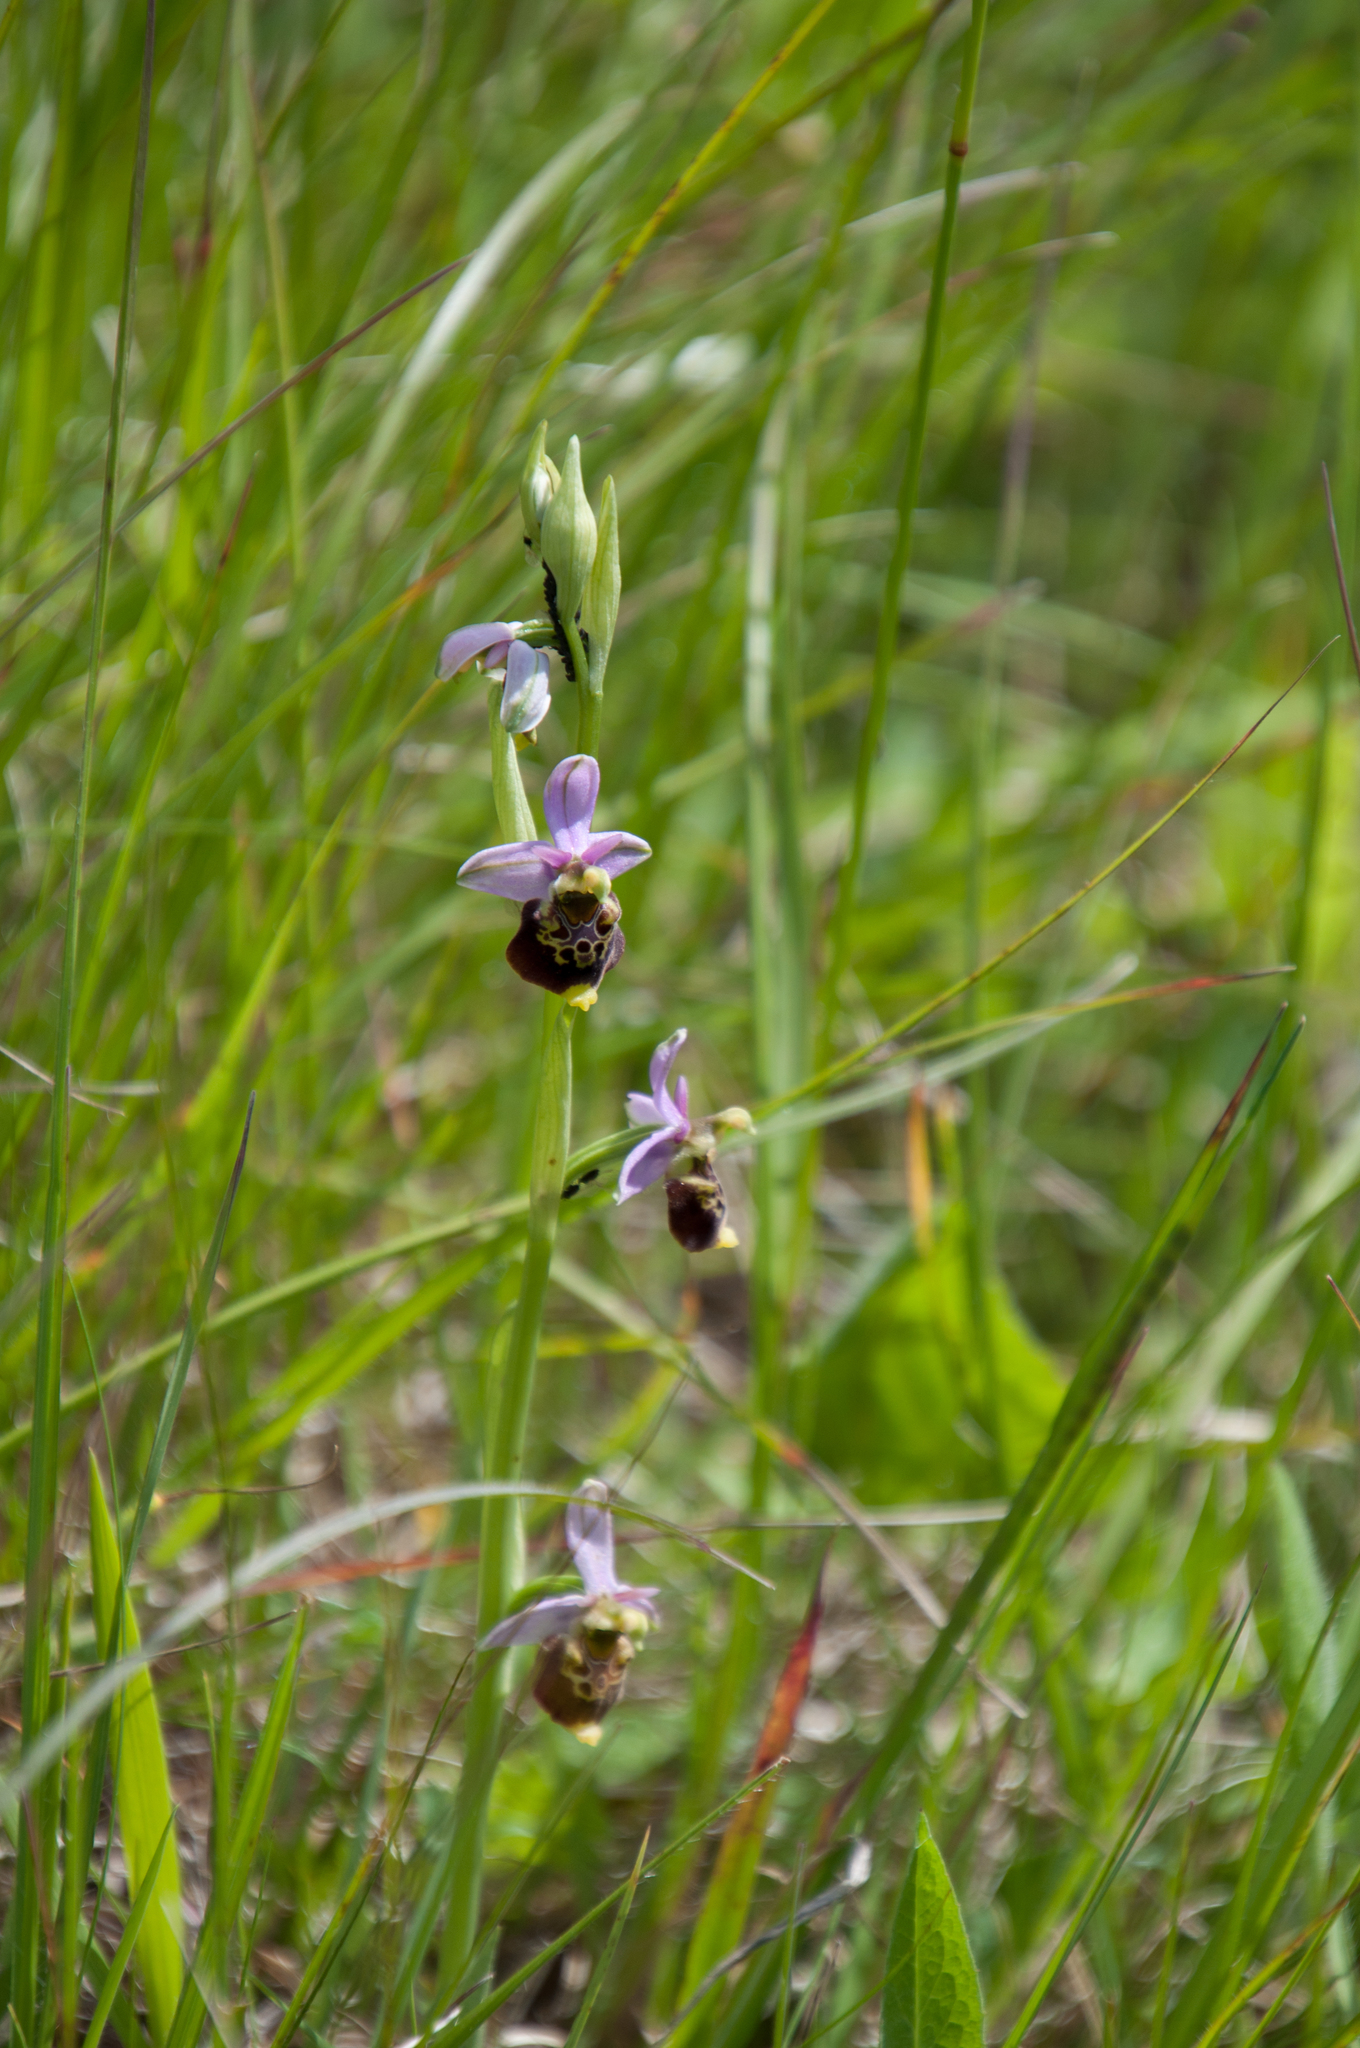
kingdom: Plantae
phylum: Tracheophyta
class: Liliopsida
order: Asparagales
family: Orchidaceae
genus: Ophrys
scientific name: Ophrys holosericea
